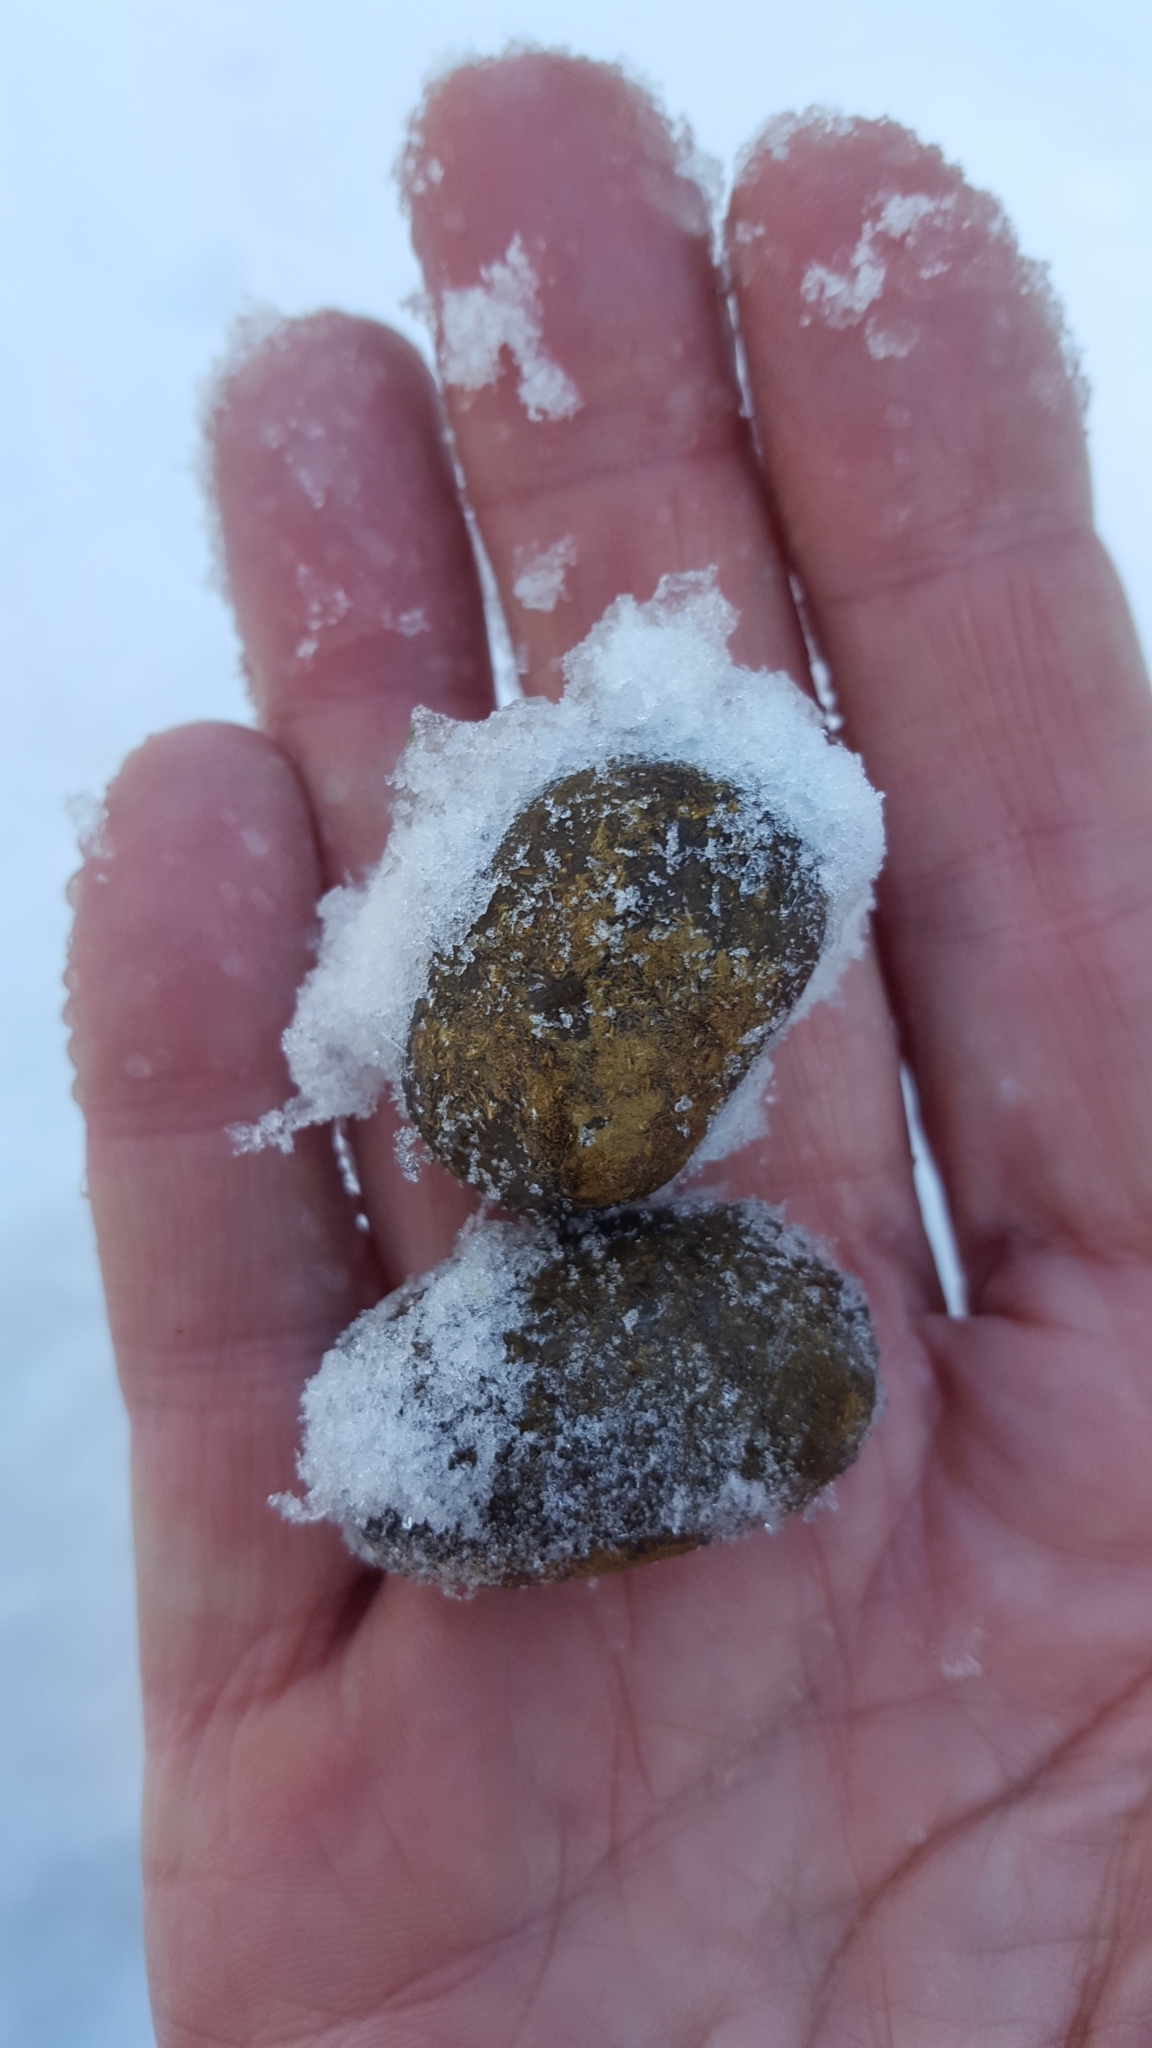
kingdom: Animalia
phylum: Chordata
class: Mammalia
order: Artiodactyla
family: Cervidae
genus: Alces
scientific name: Alces alces
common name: Moose
